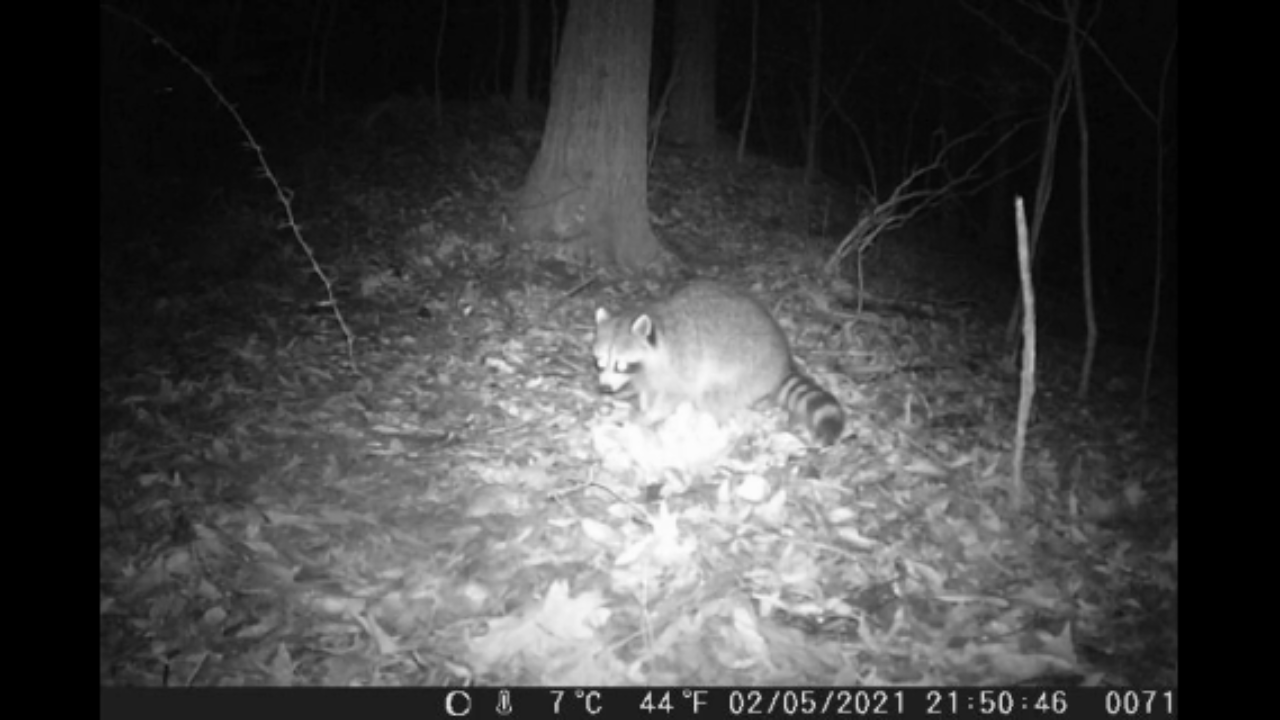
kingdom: Animalia
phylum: Chordata
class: Mammalia
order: Carnivora
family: Procyonidae
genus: Procyon
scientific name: Procyon lotor
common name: Raccoon
